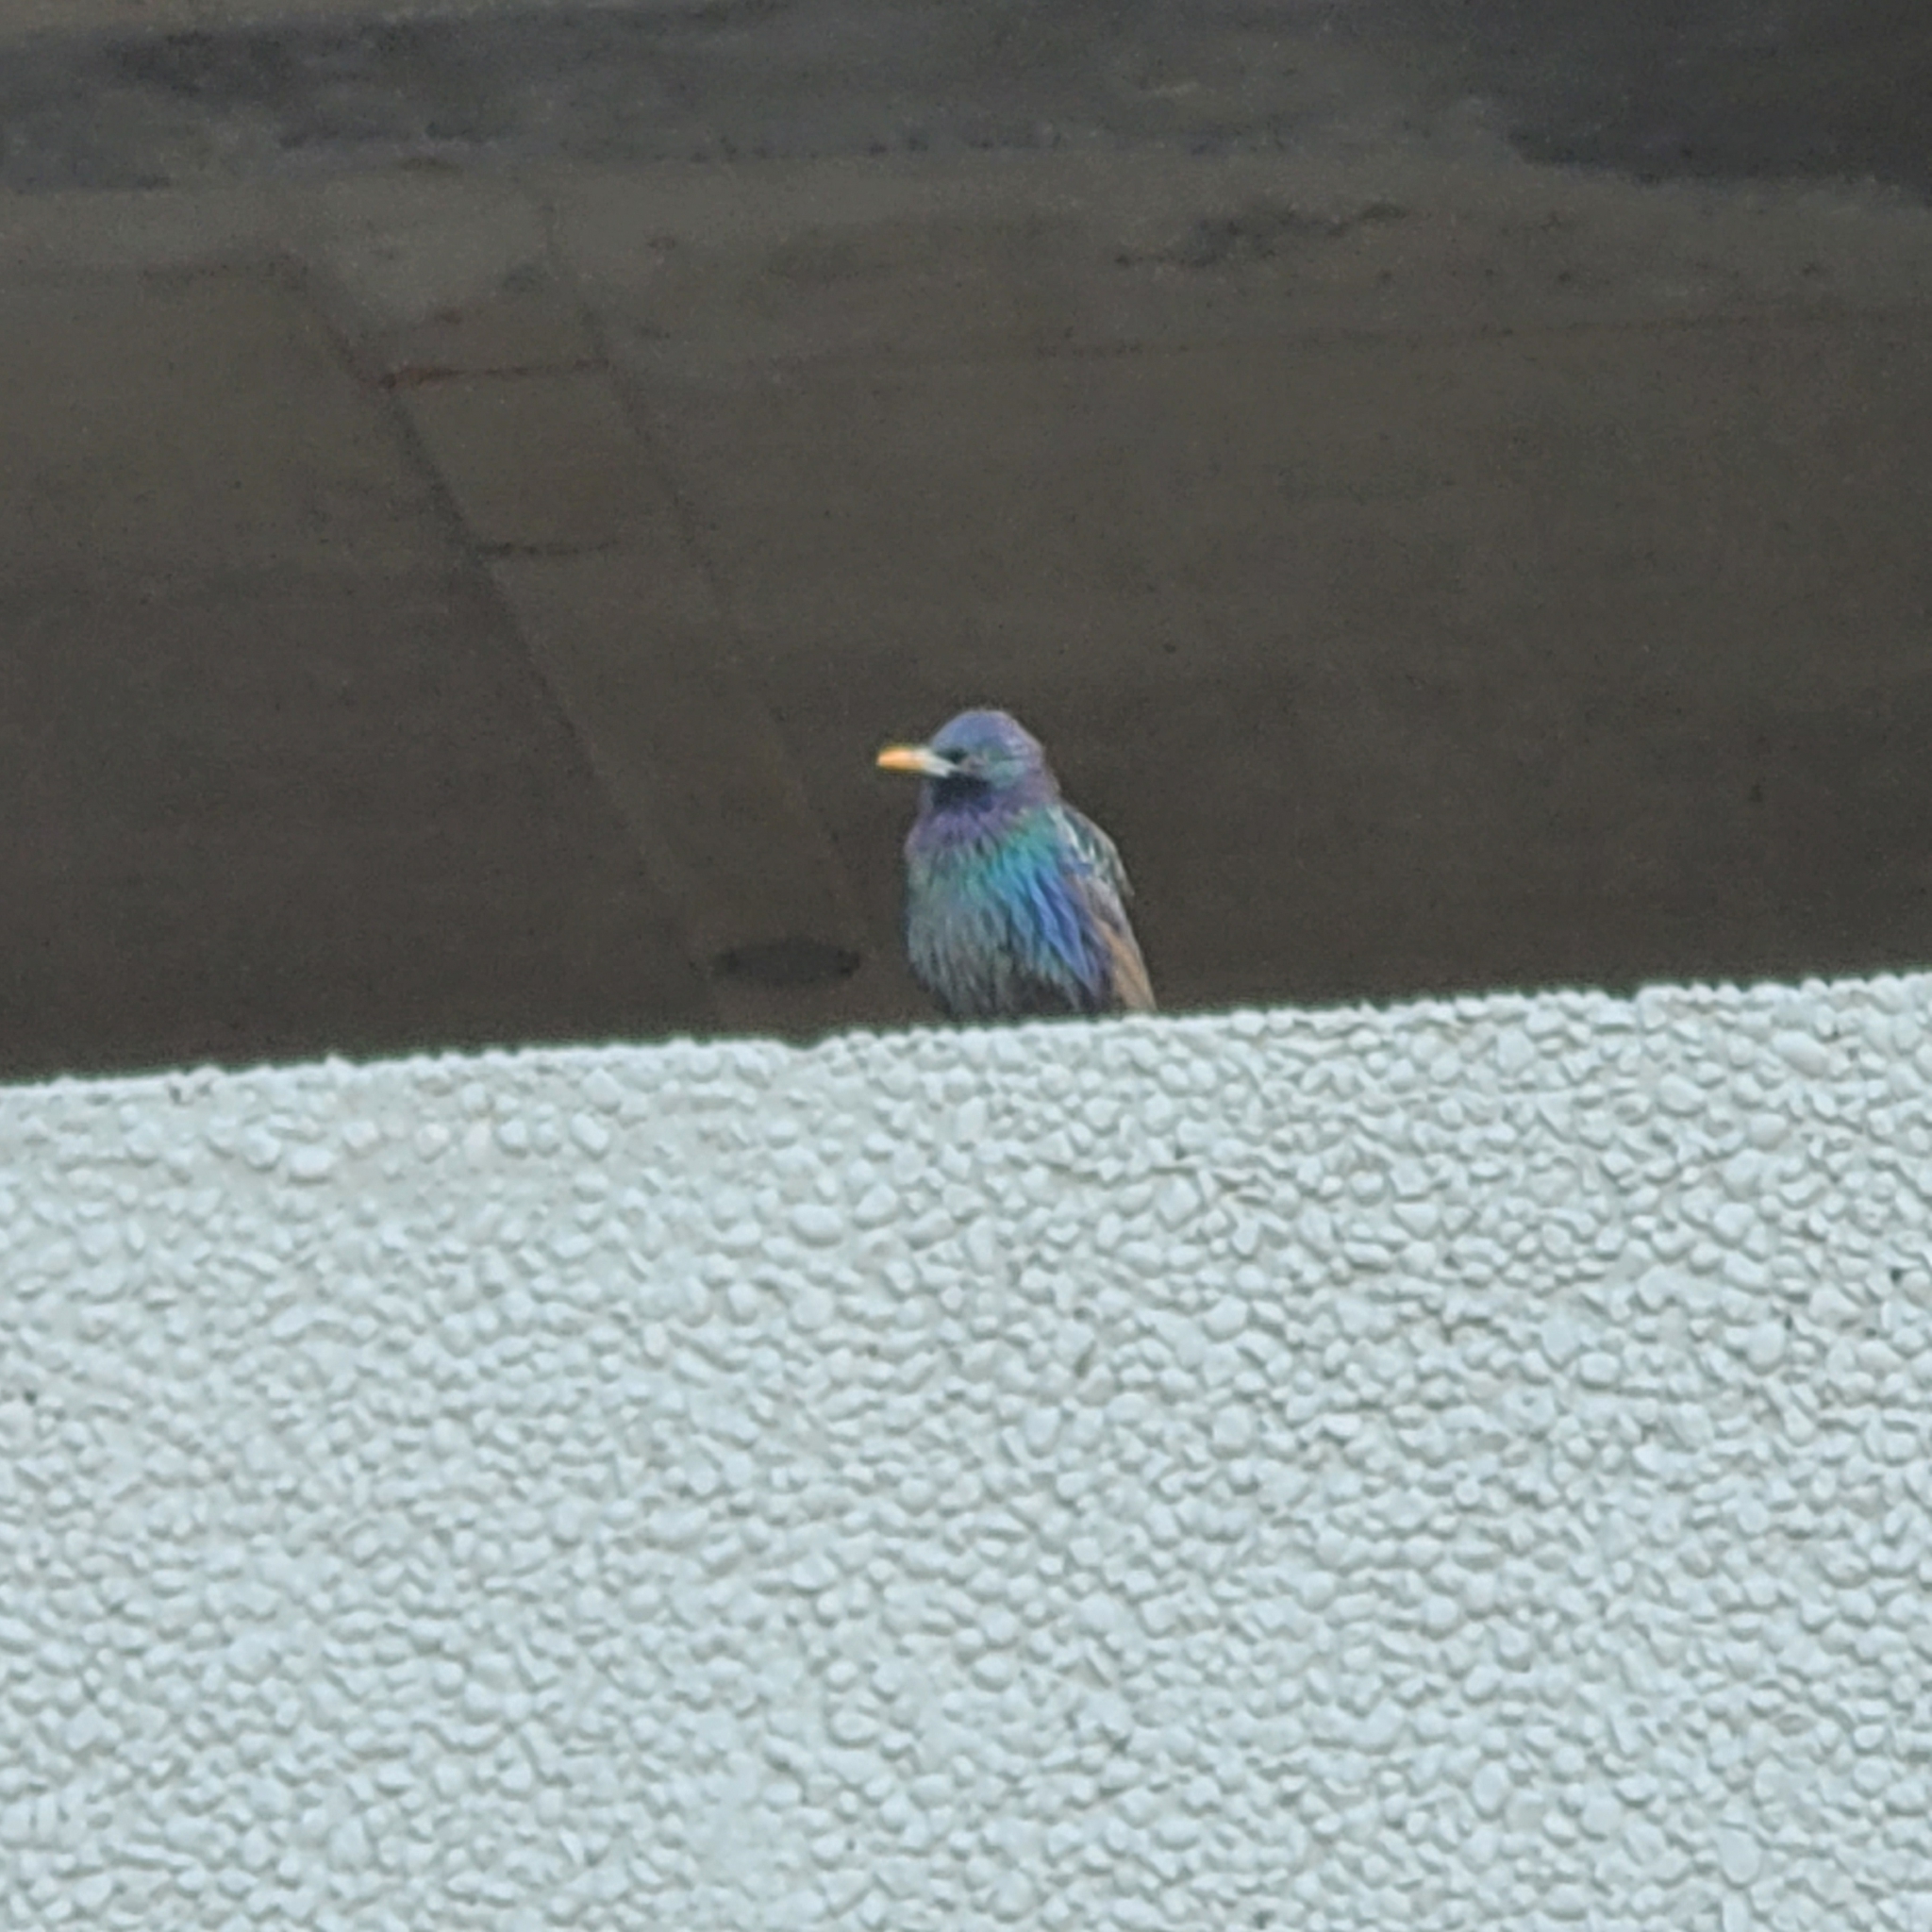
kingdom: Animalia
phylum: Chordata
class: Aves
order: Passeriformes
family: Sturnidae
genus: Sturnus
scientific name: Sturnus vulgaris
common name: Common starling
